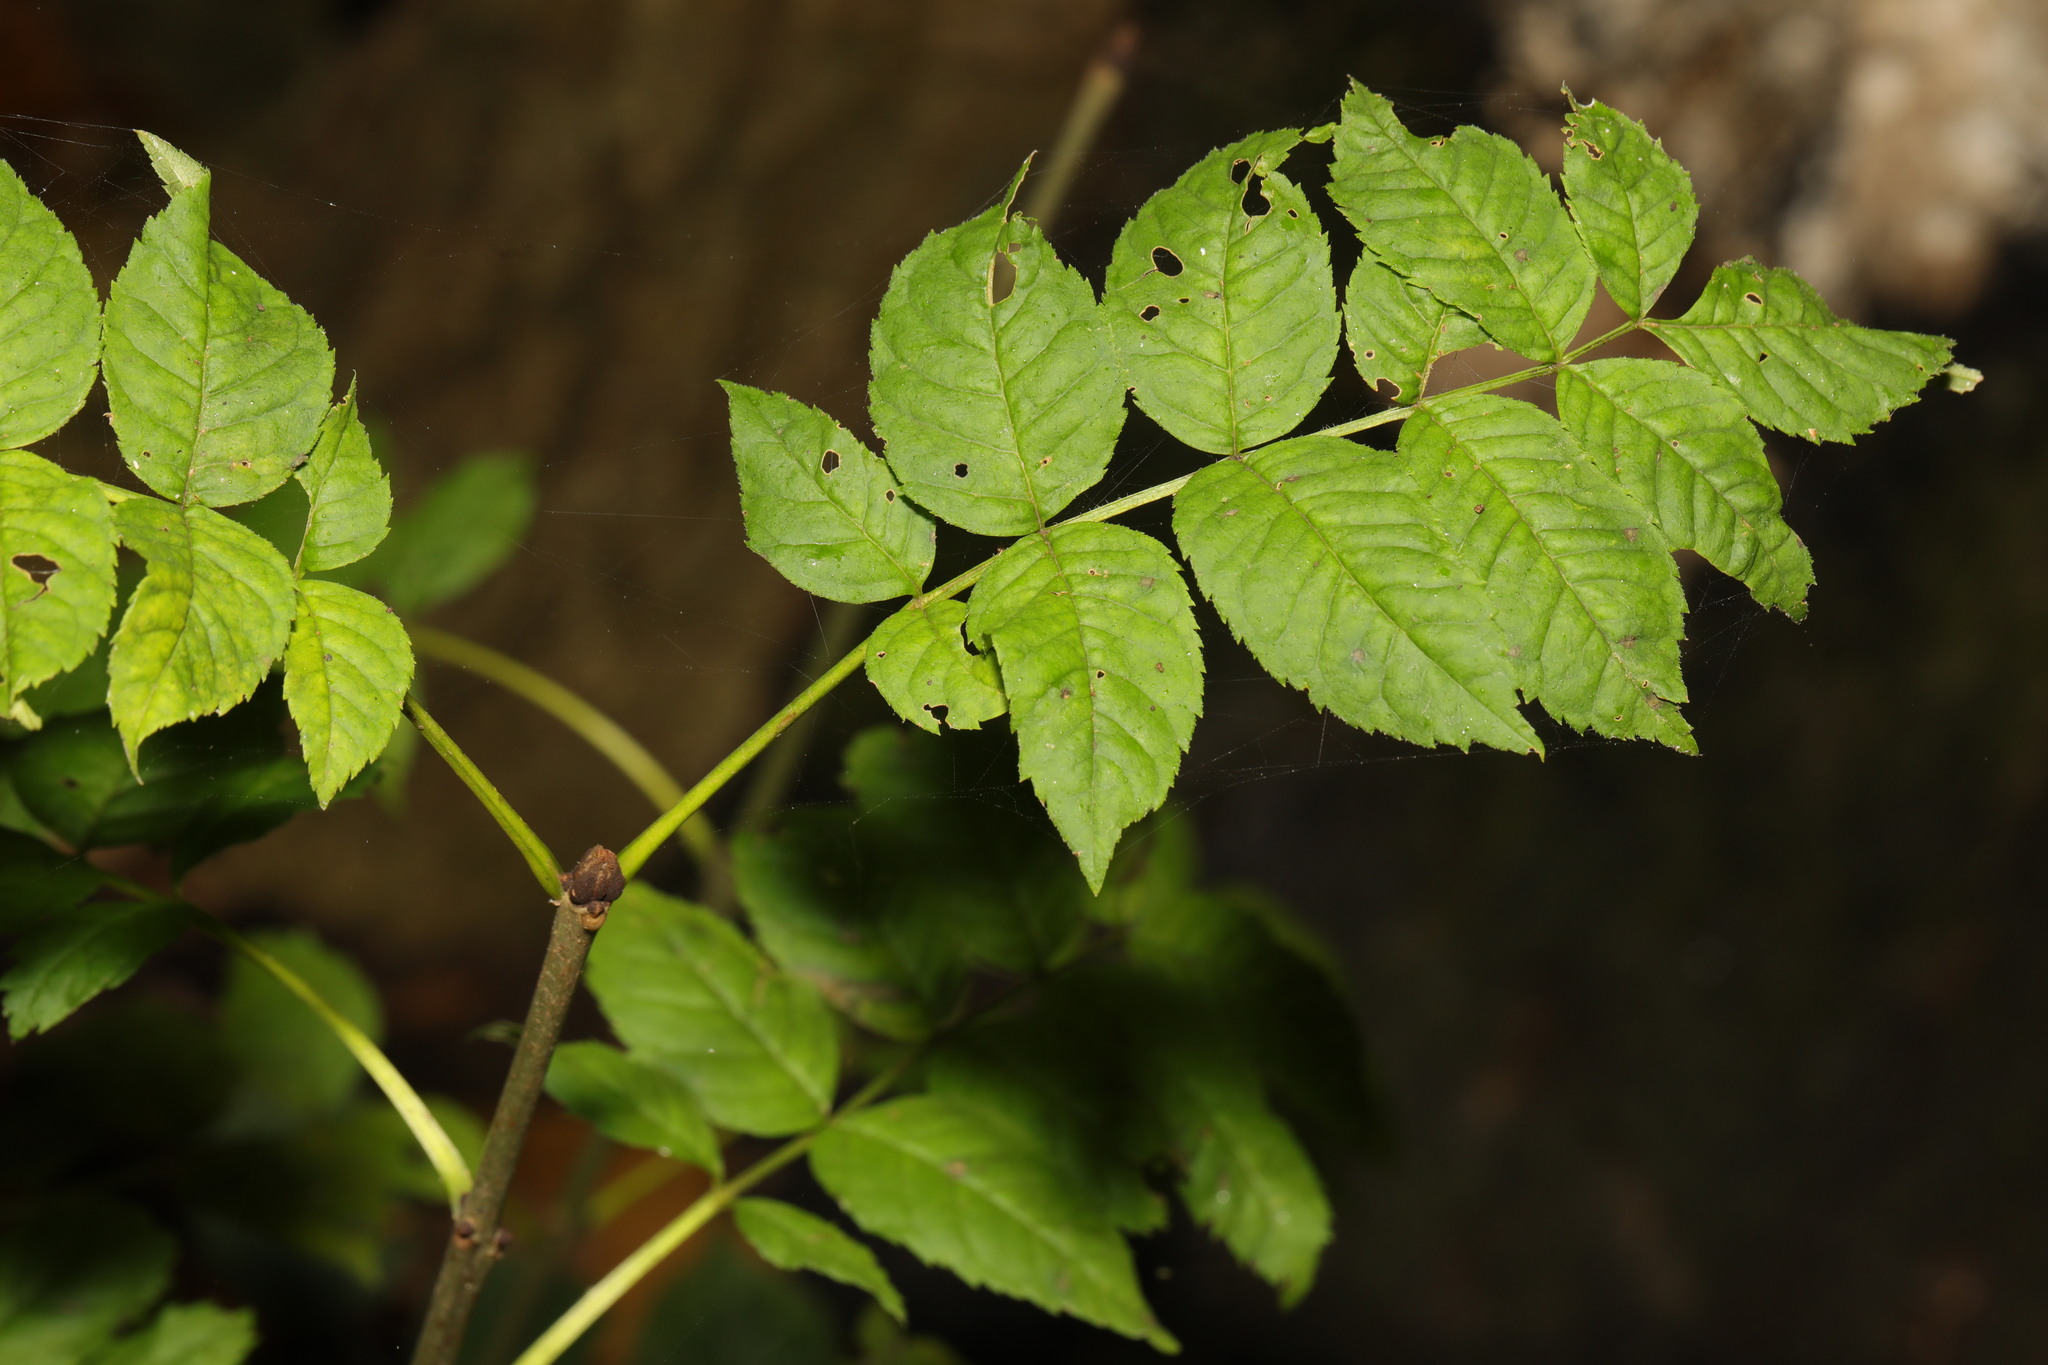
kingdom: Plantae
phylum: Tracheophyta
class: Magnoliopsida
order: Lamiales
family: Oleaceae
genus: Fraxinus
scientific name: Fraxinus excelsior
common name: European ash
